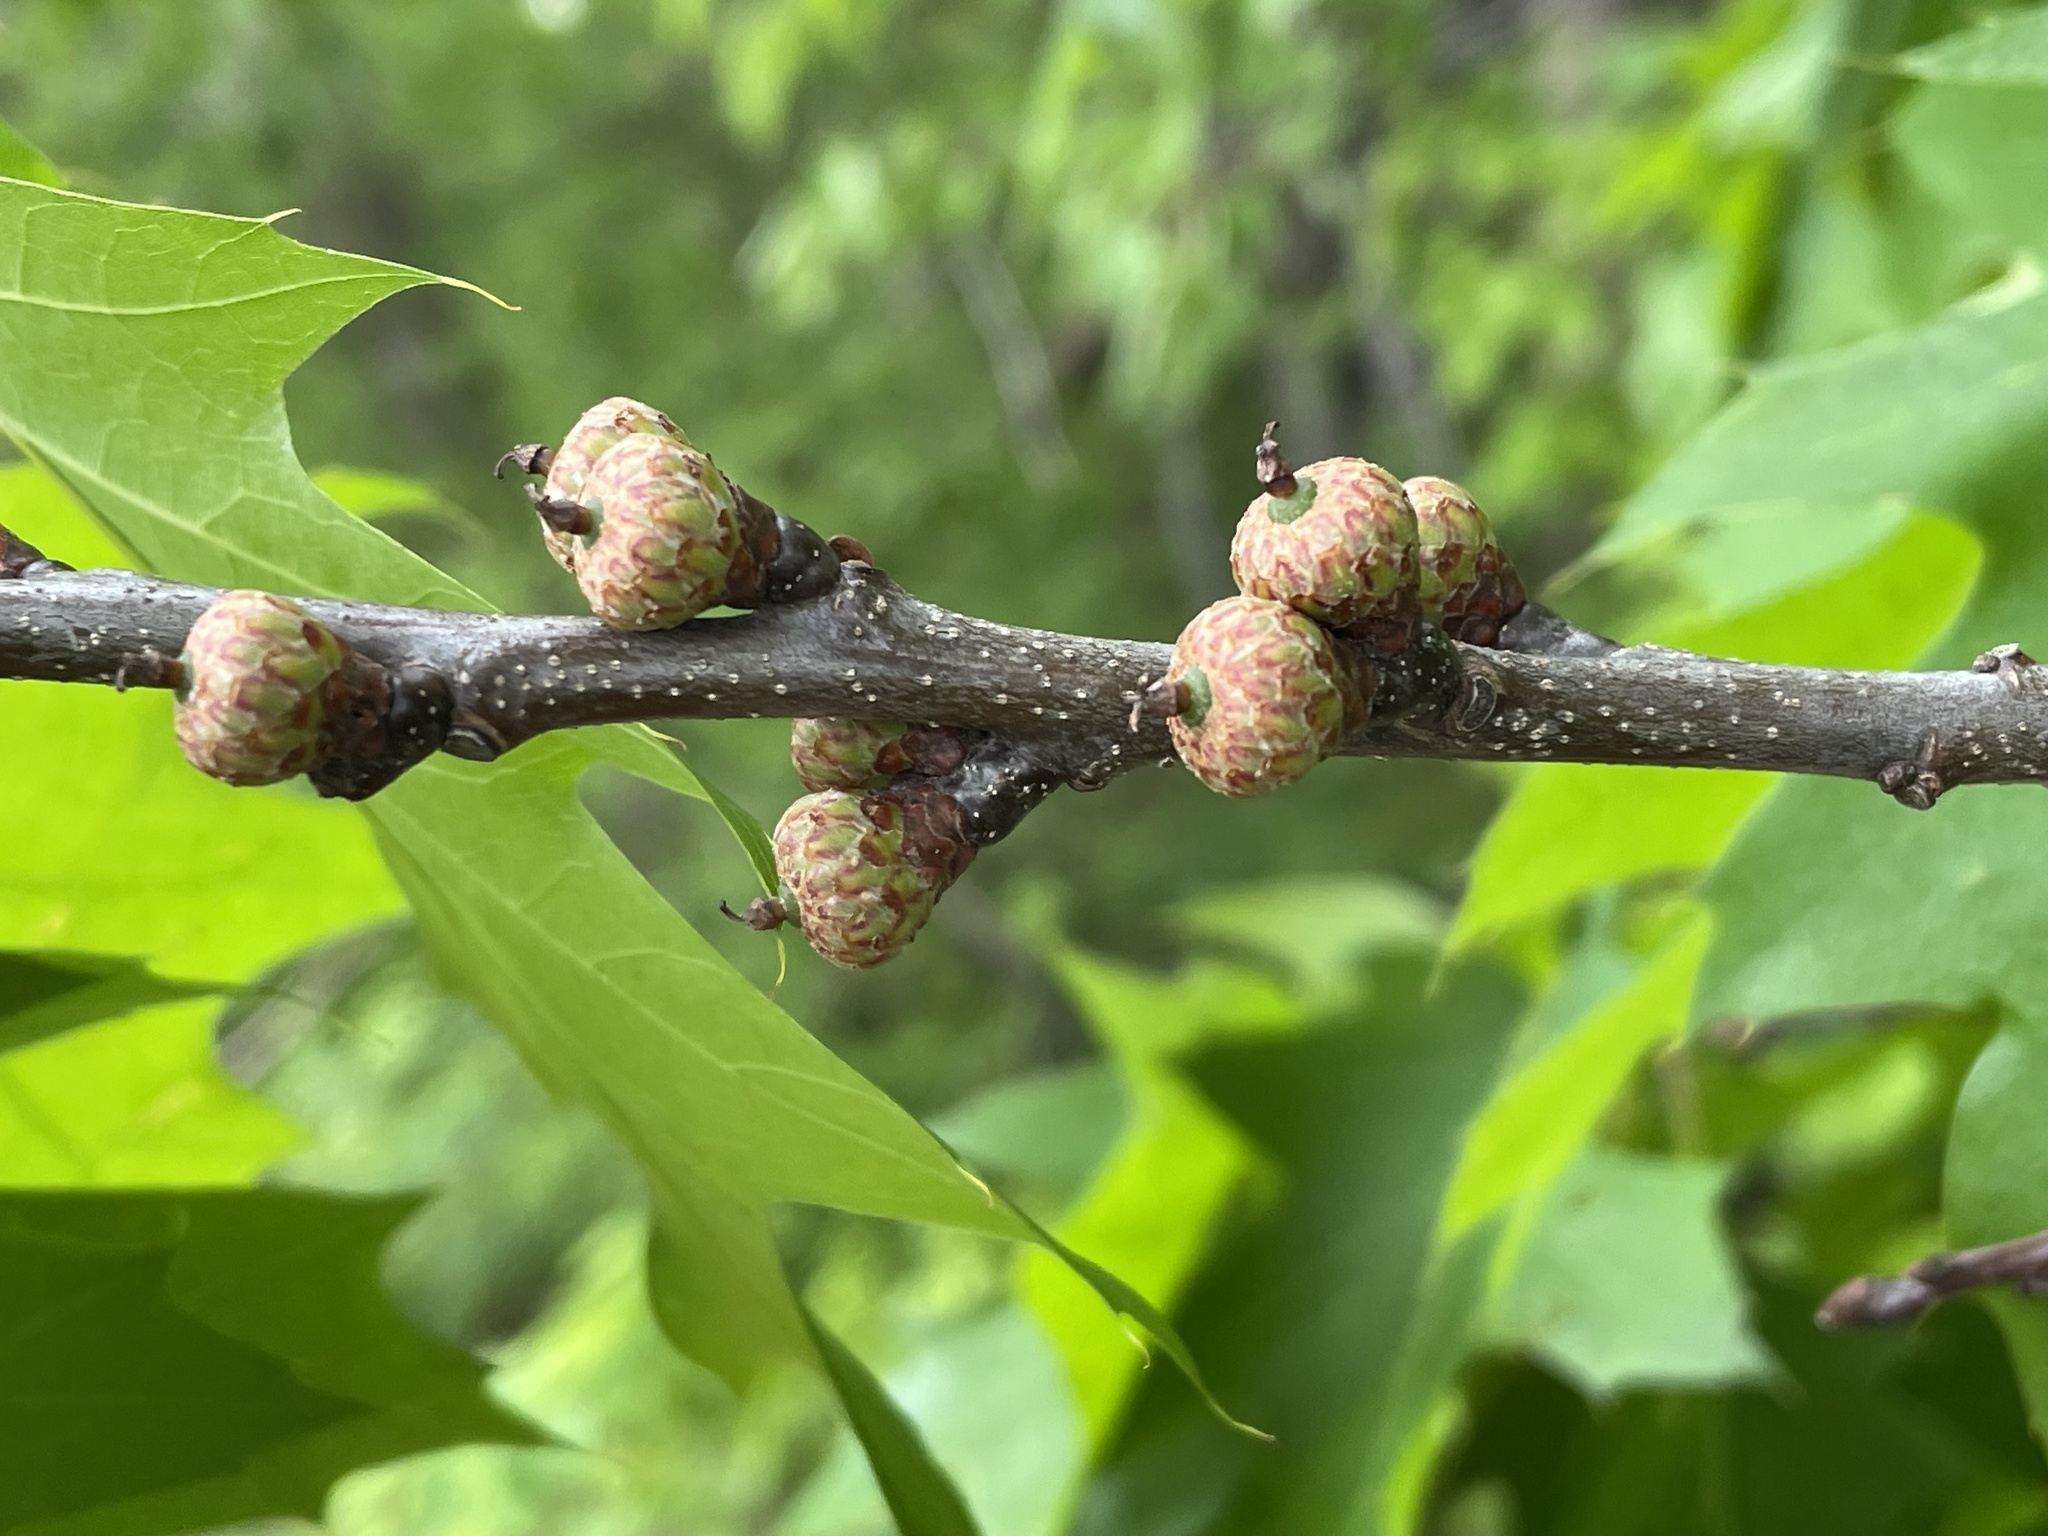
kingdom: Plantae
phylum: Tracheophyta
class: Magnoliopsida
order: Fagales
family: Fagaceae
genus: Quercus
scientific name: Quercus rubra
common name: Red oak
